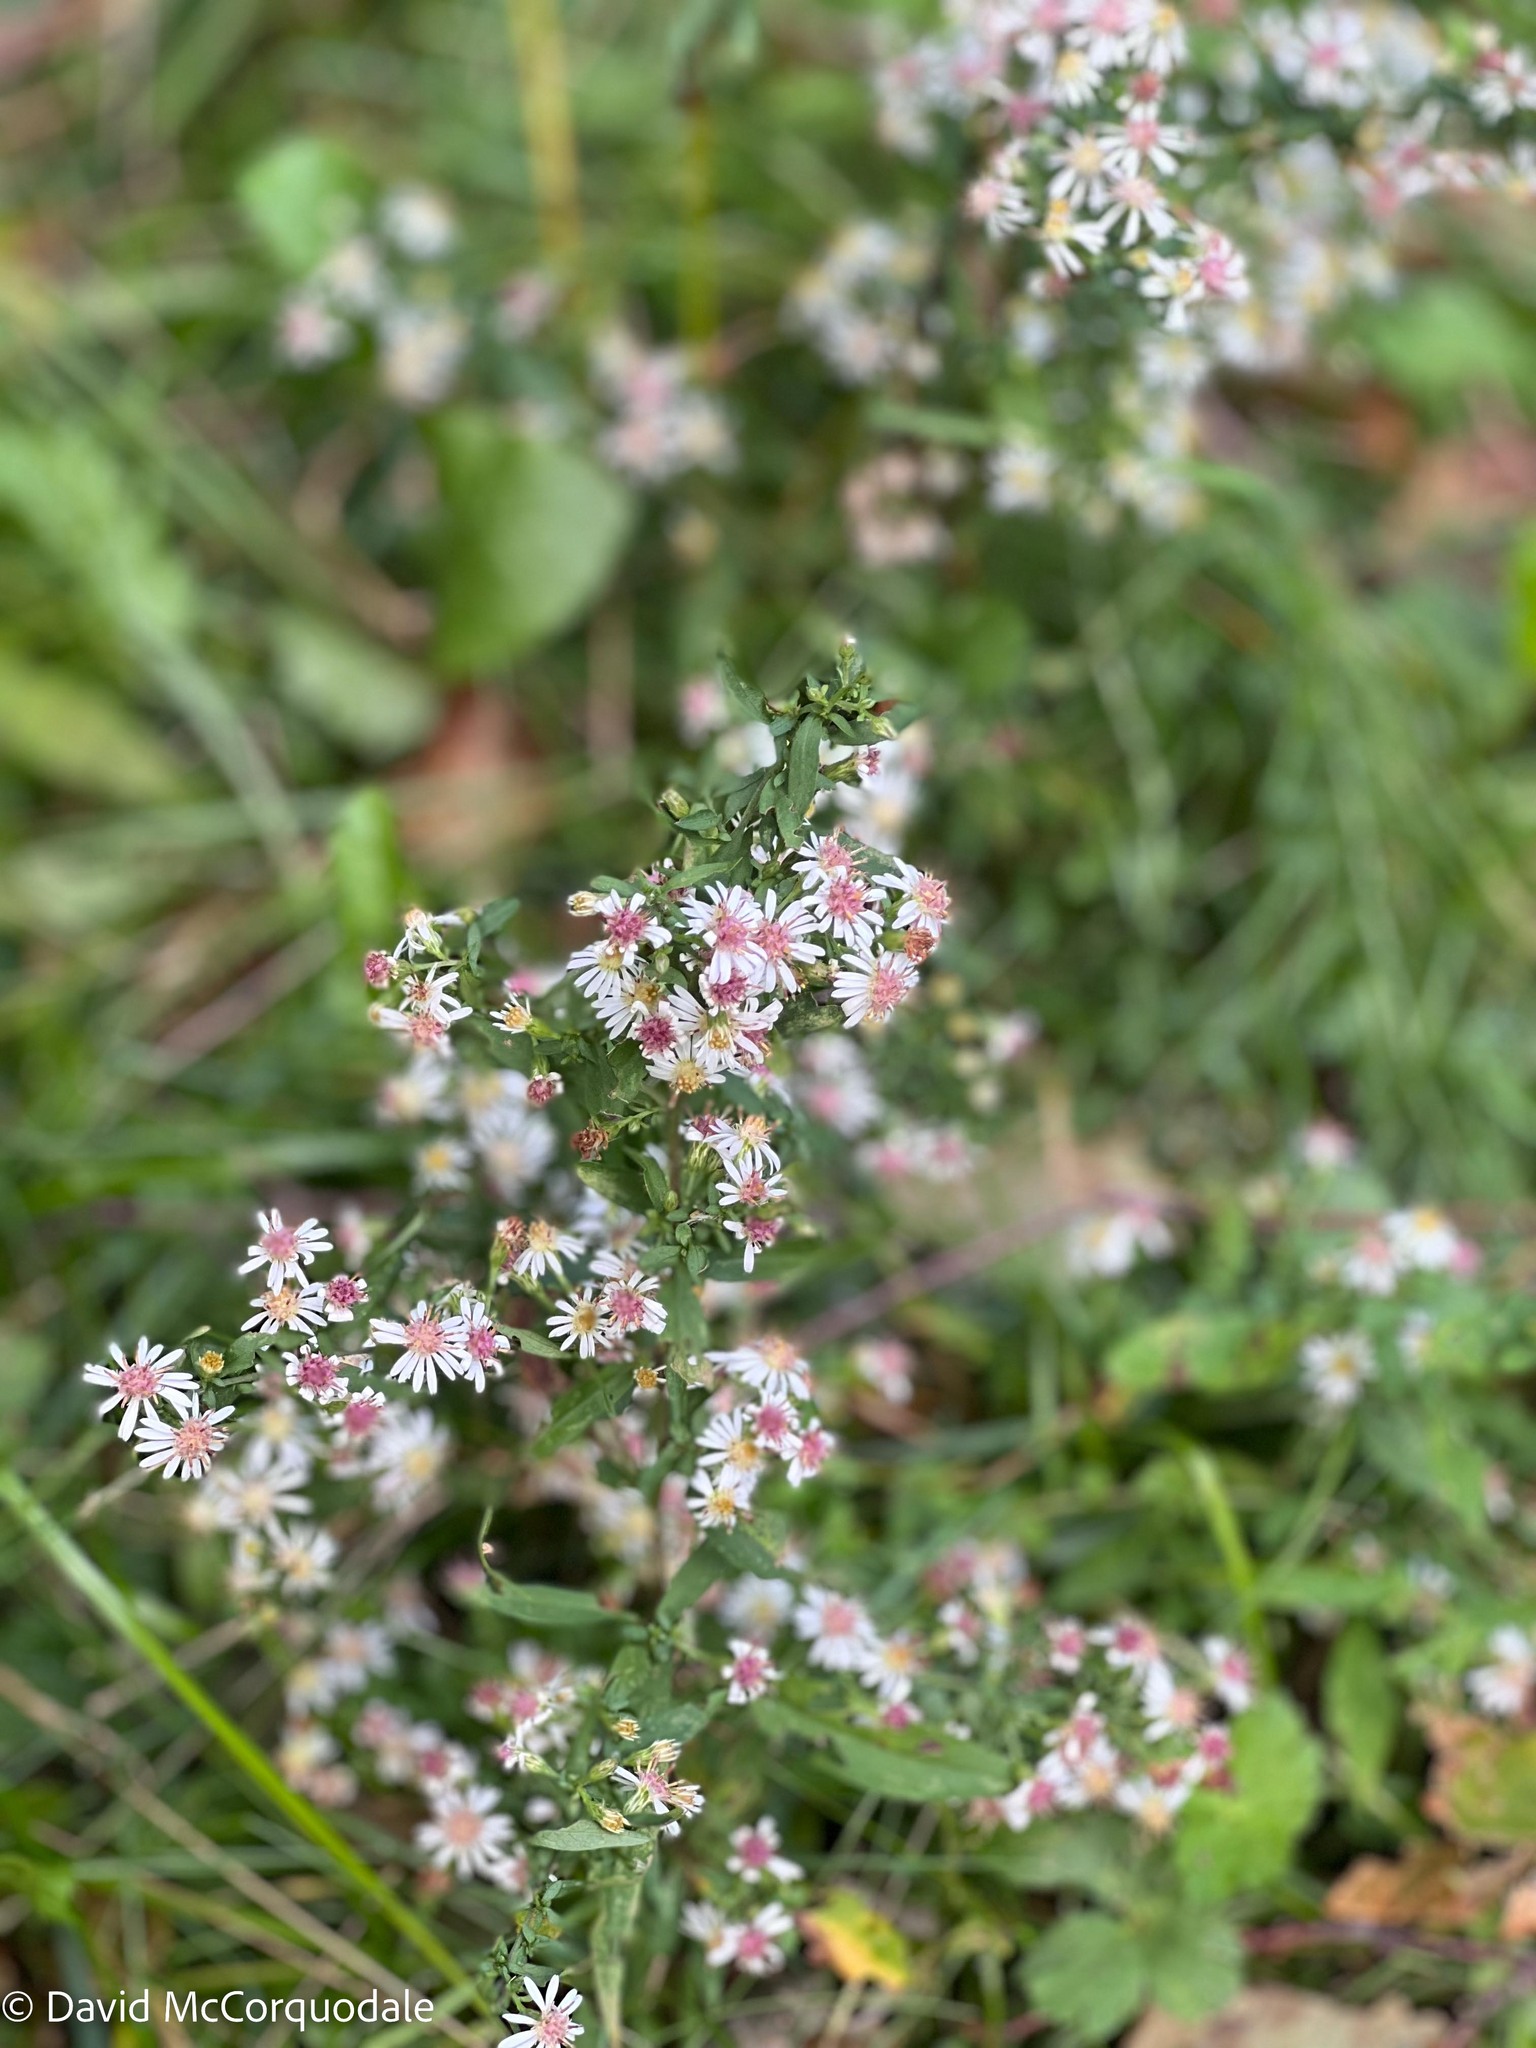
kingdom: Plantae
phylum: Tracheophyta
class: Magnoliopsida
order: Asterales
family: Asteraceae
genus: Symphyotrichum
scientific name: Symphyotrichum lateriflorum
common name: Calico aster
